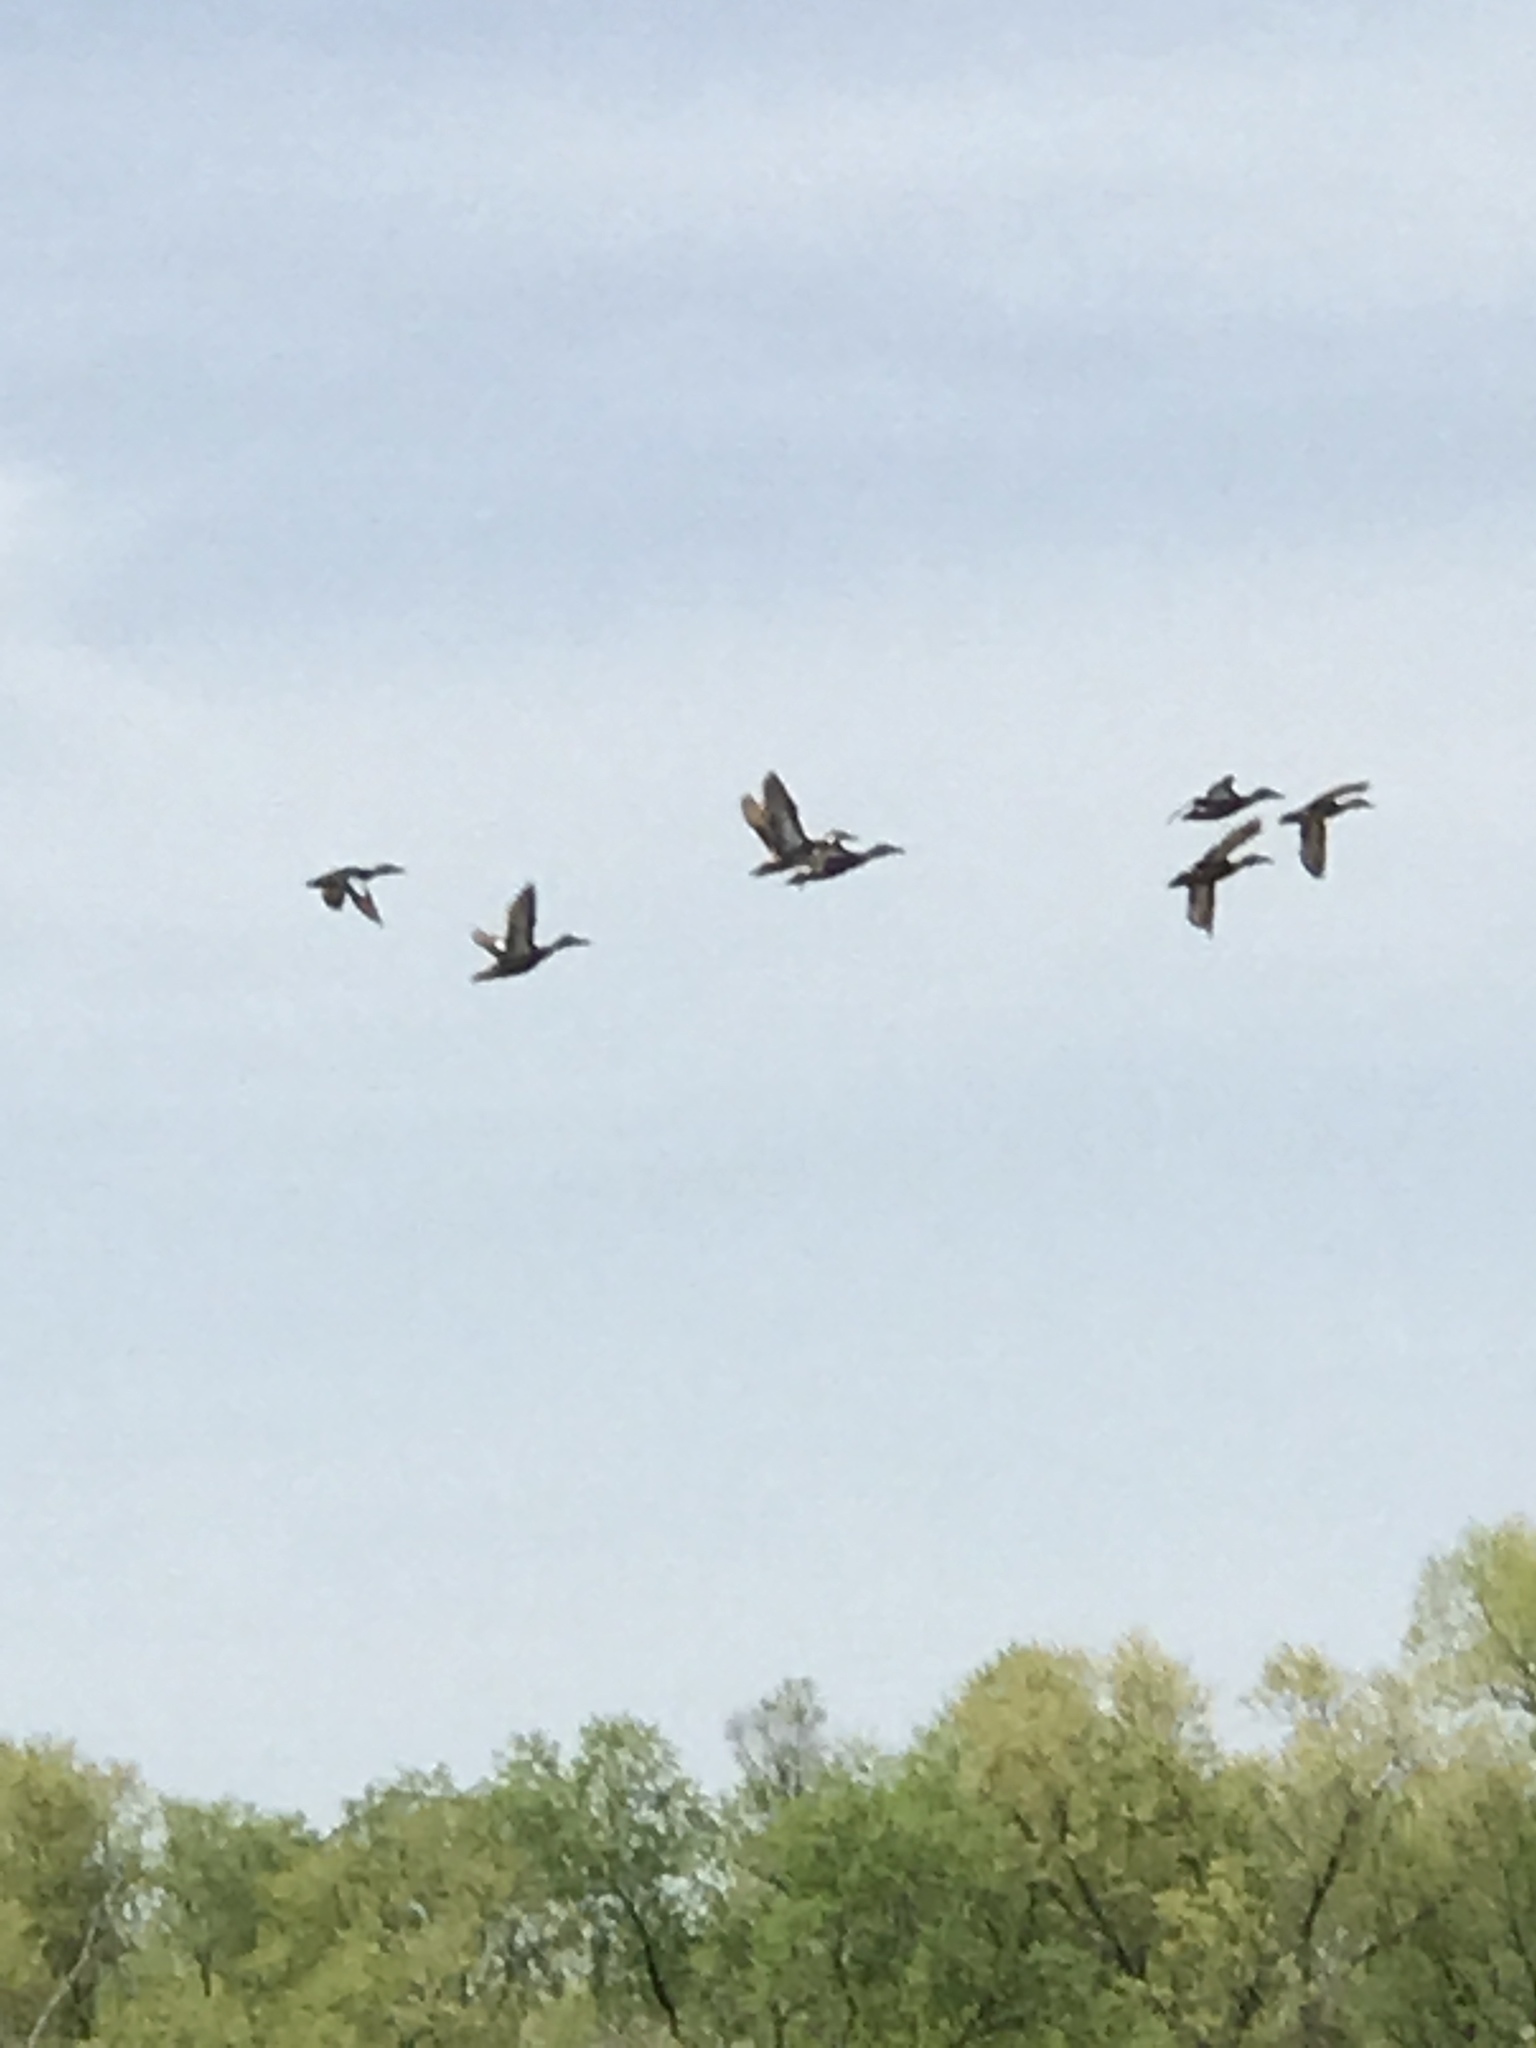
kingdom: Animalia
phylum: Chordata
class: Aves
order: Anseriformes
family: Anatidae
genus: Spatula
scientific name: Spatula clypeata
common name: Northern shoveler
